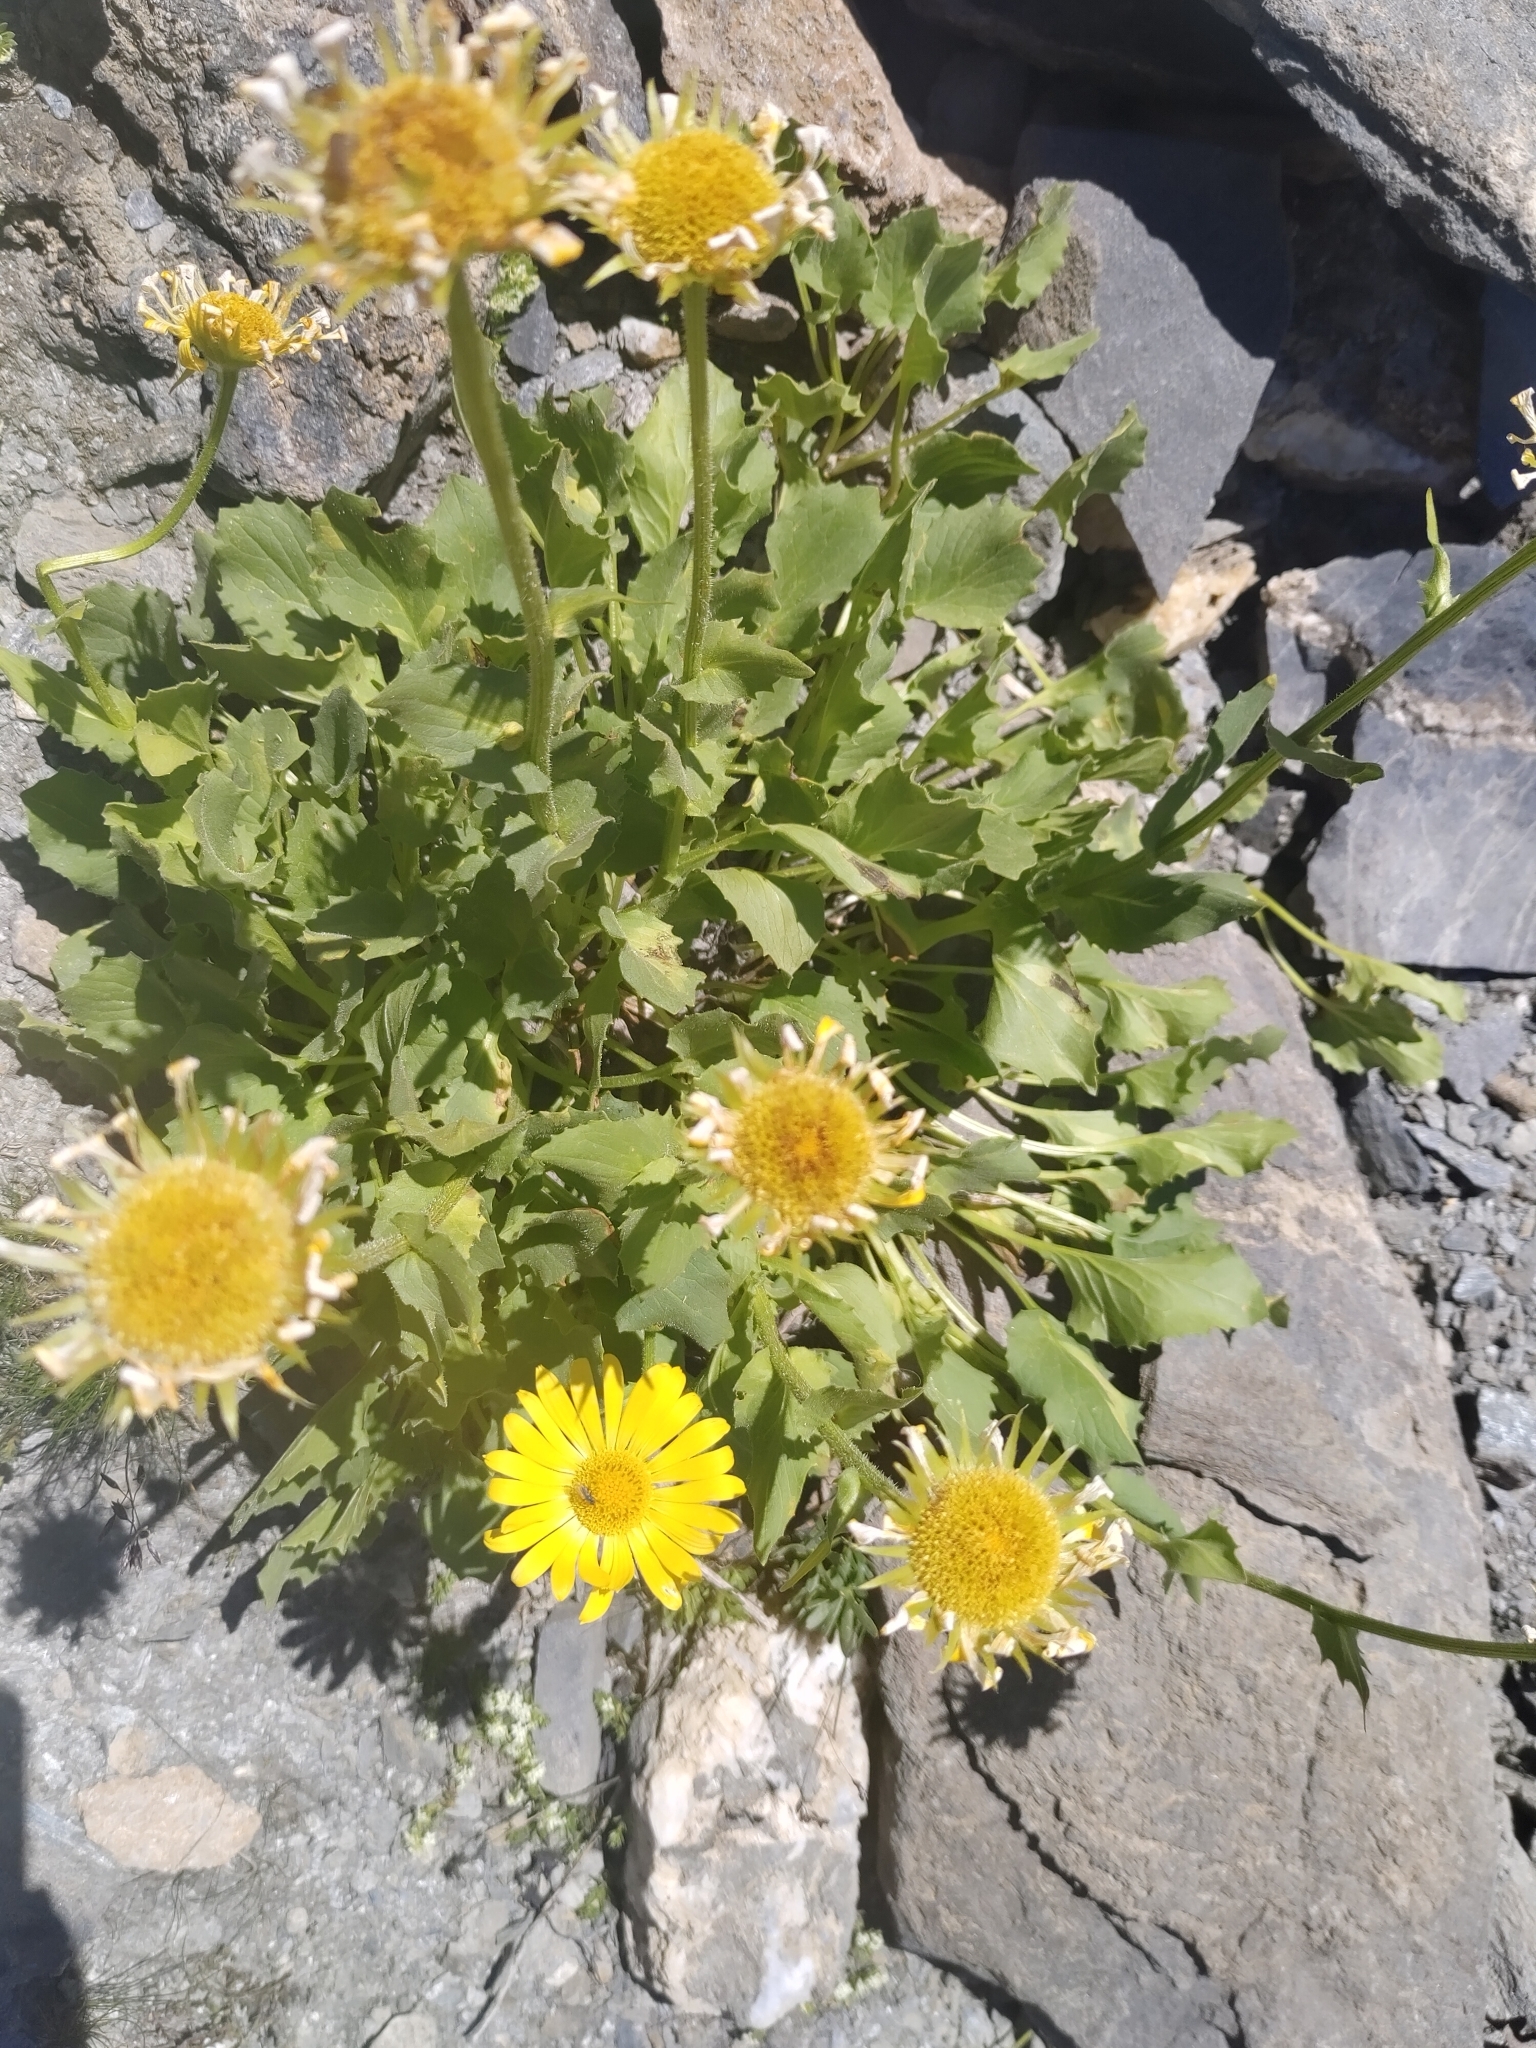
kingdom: Plantae
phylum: Tracheophyta
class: Magnoliopsida
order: Asterales
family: Asteraceae
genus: Doronicum
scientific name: Doronicum grandiflorum
